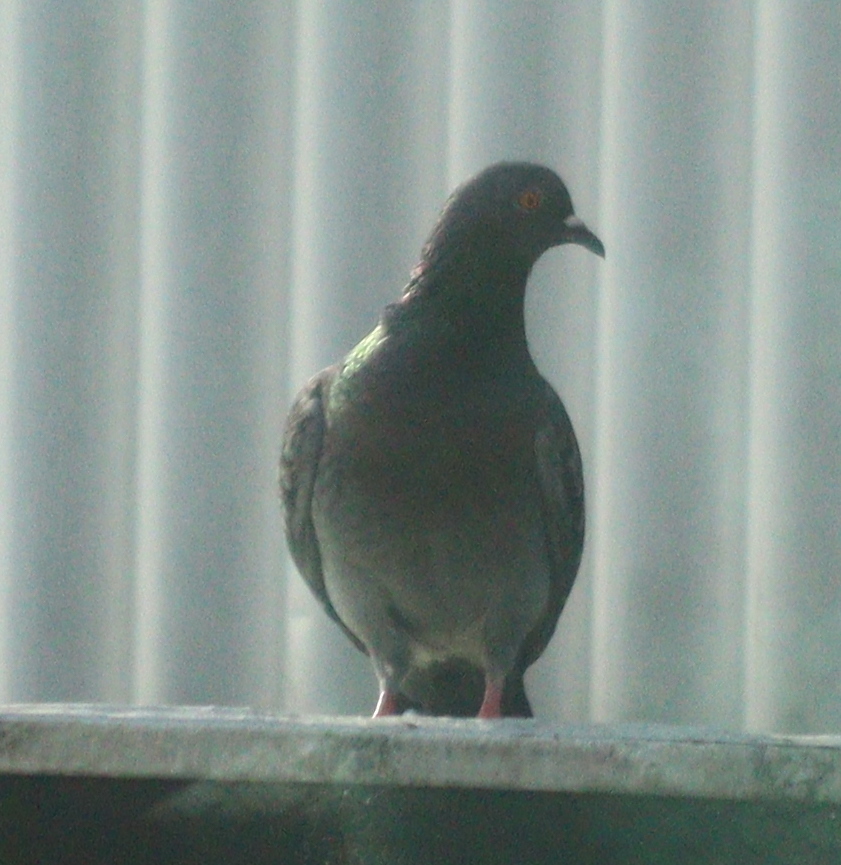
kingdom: Animalia
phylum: Chordata
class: Aves
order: Columbiformes
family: Columbidae
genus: Columba
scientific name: Columba livia
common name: Rock pigeon
